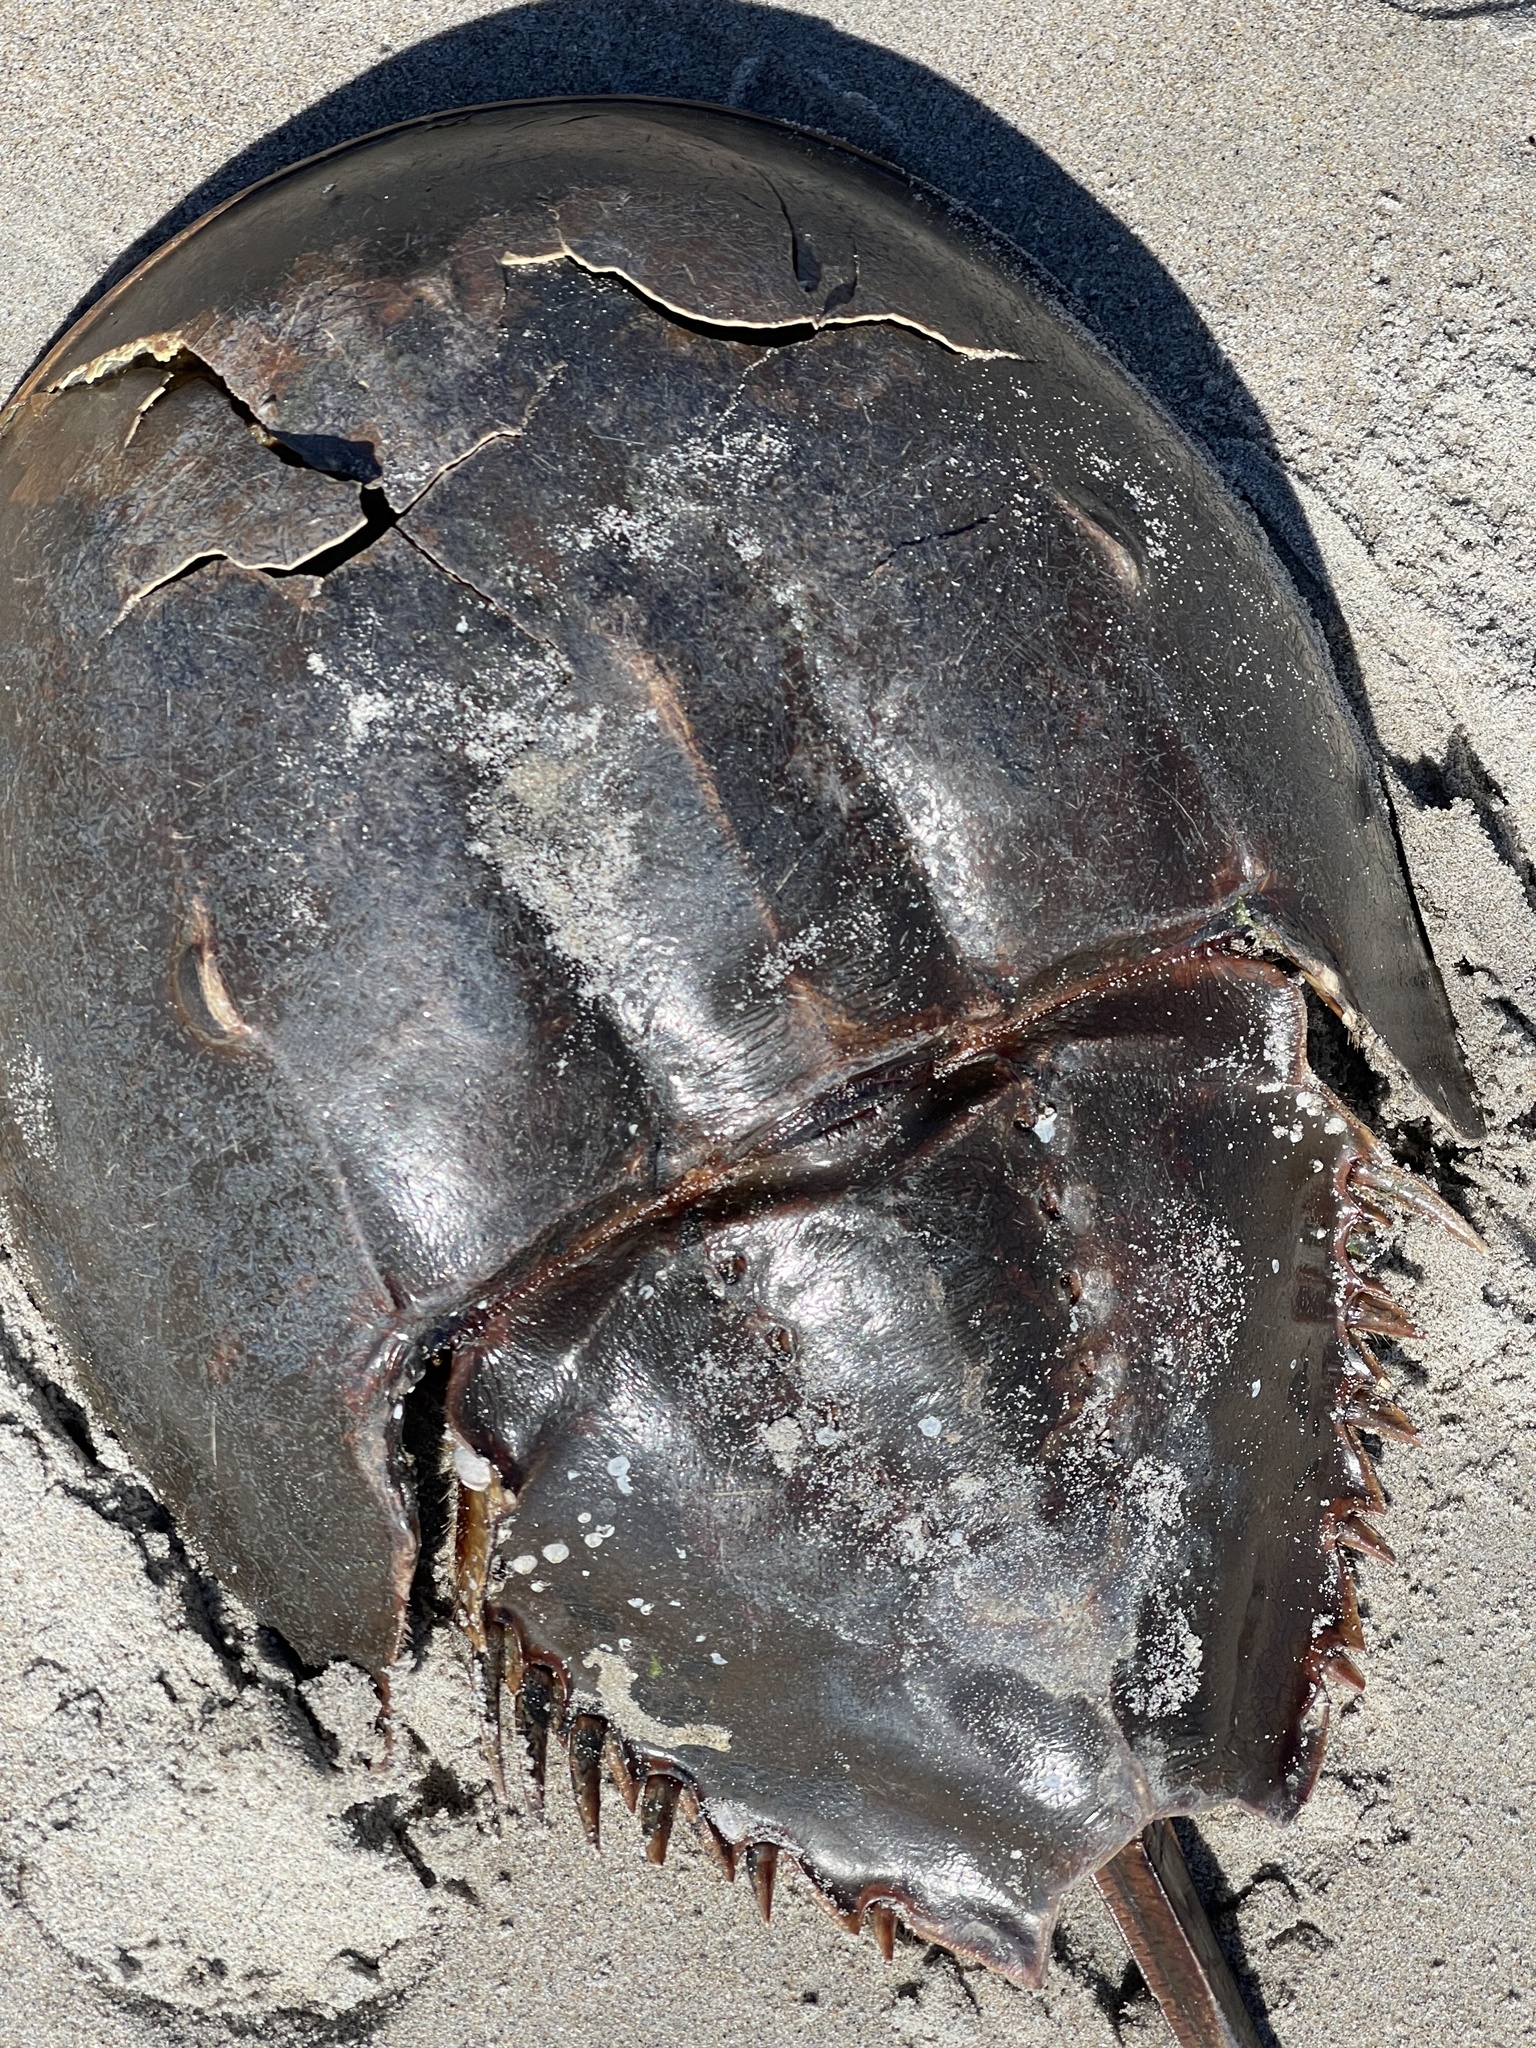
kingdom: Animalia
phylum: Arthropoda
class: Merostomata
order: Xiphosurida
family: Limulidae
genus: Limulus
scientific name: Limulus polyphemus
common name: Horseshoe crab
